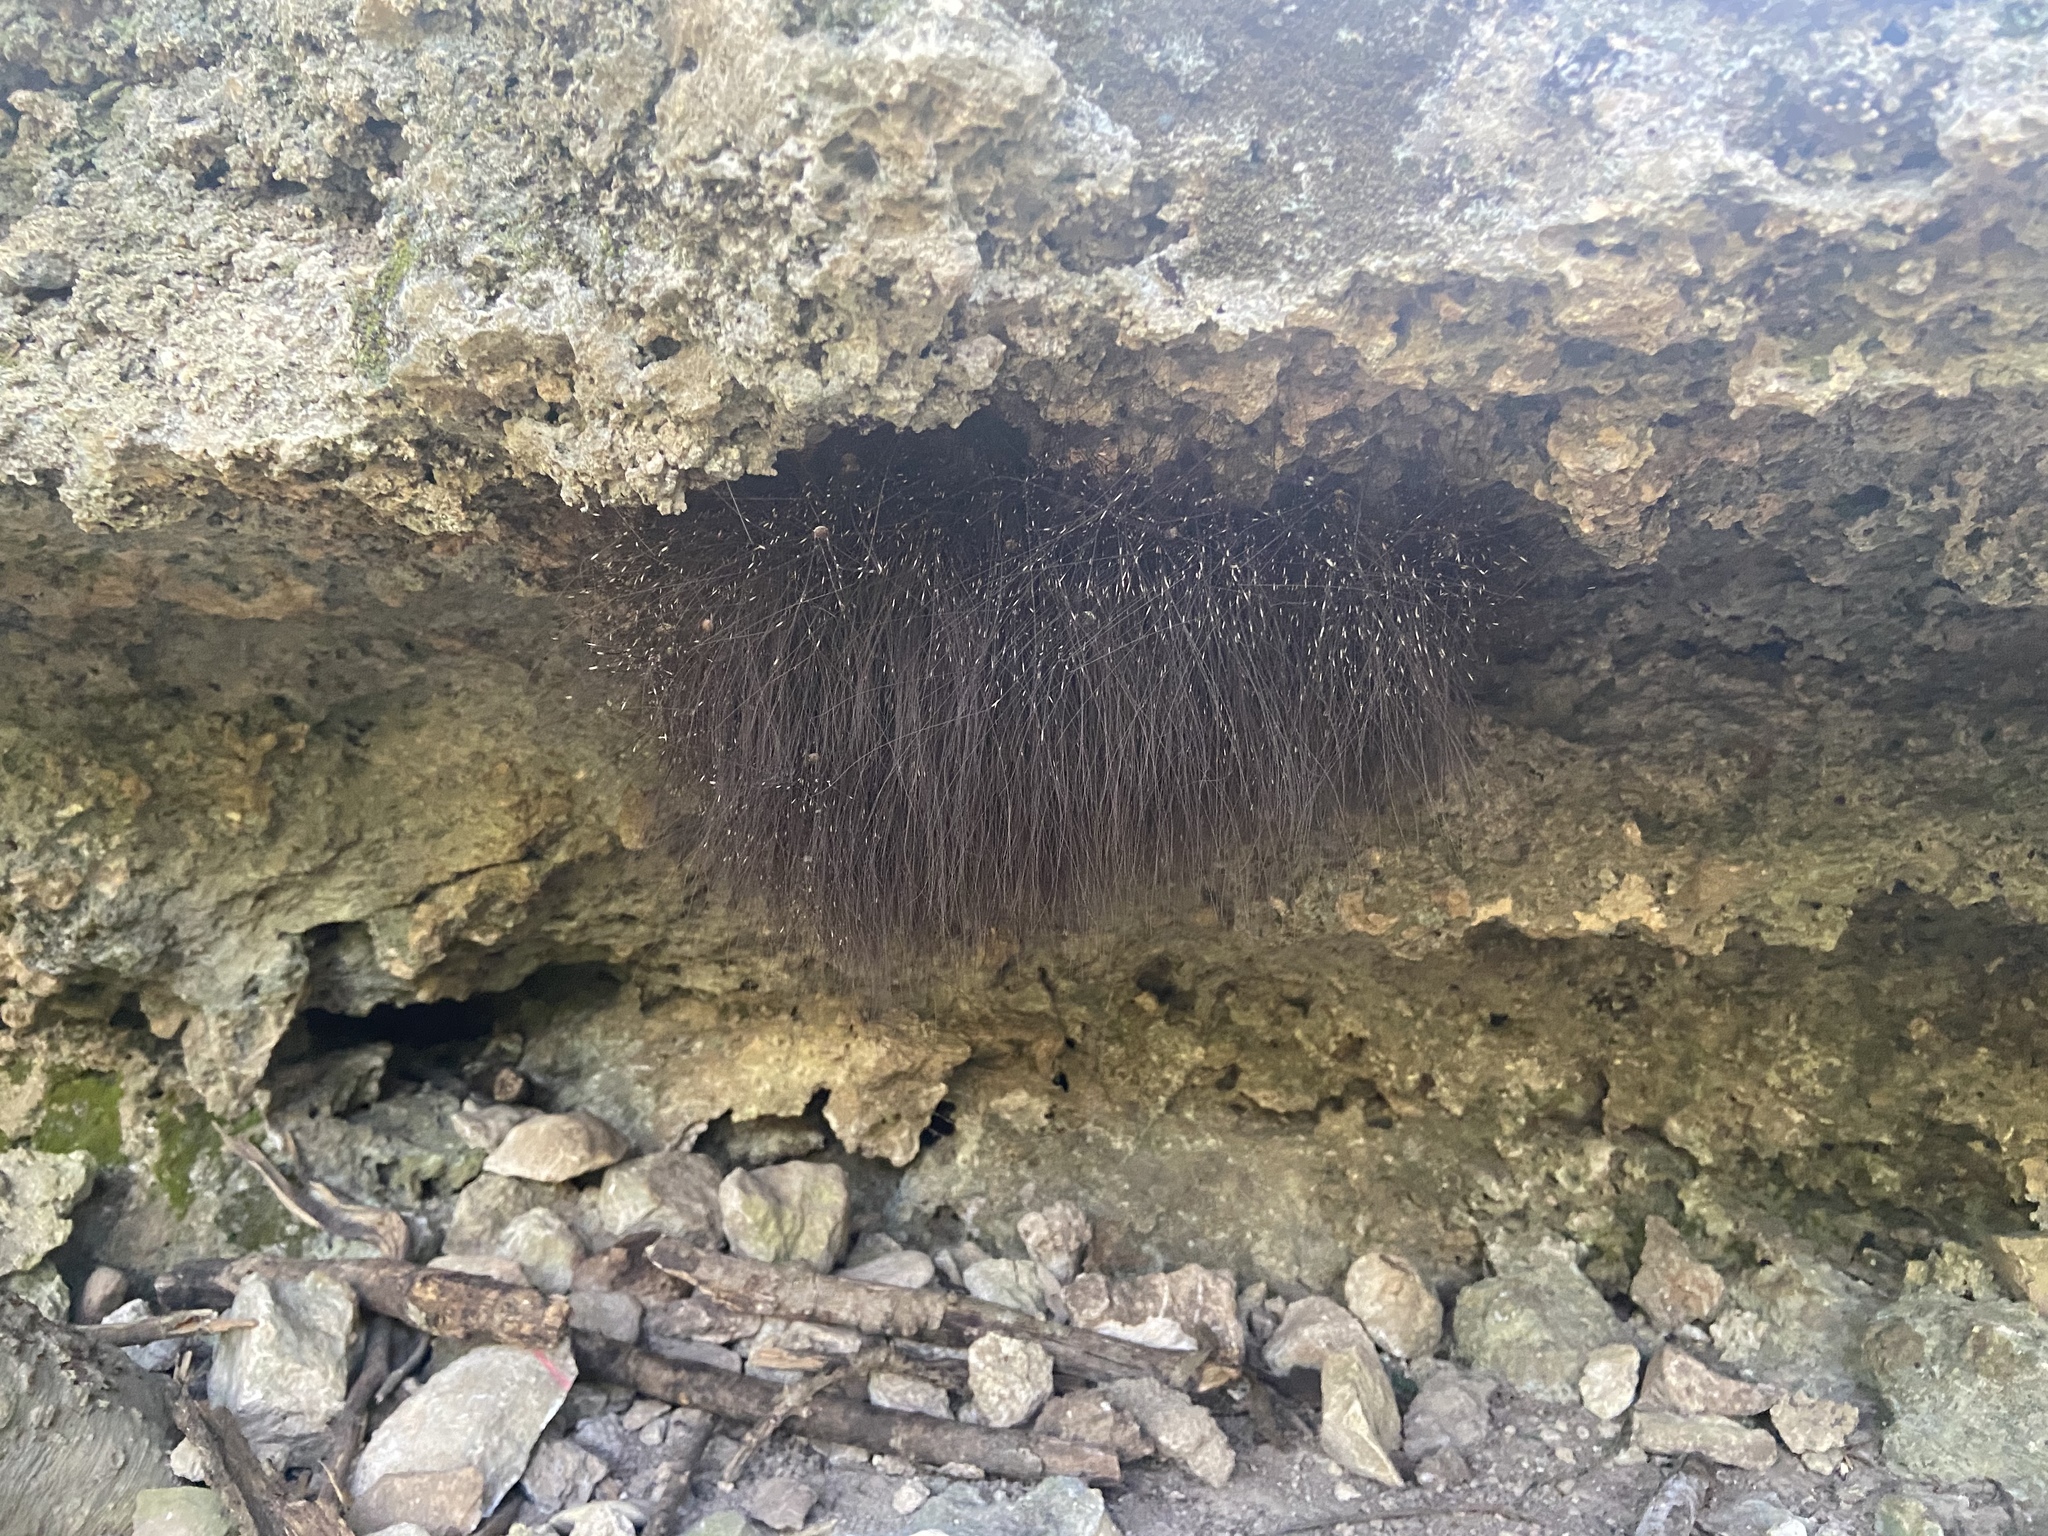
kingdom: Animalia
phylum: Arthropoda
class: Arachnida
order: Opiliones
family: Sclerosomatidae
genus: Leiobunum
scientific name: Leiobunum townsendi
